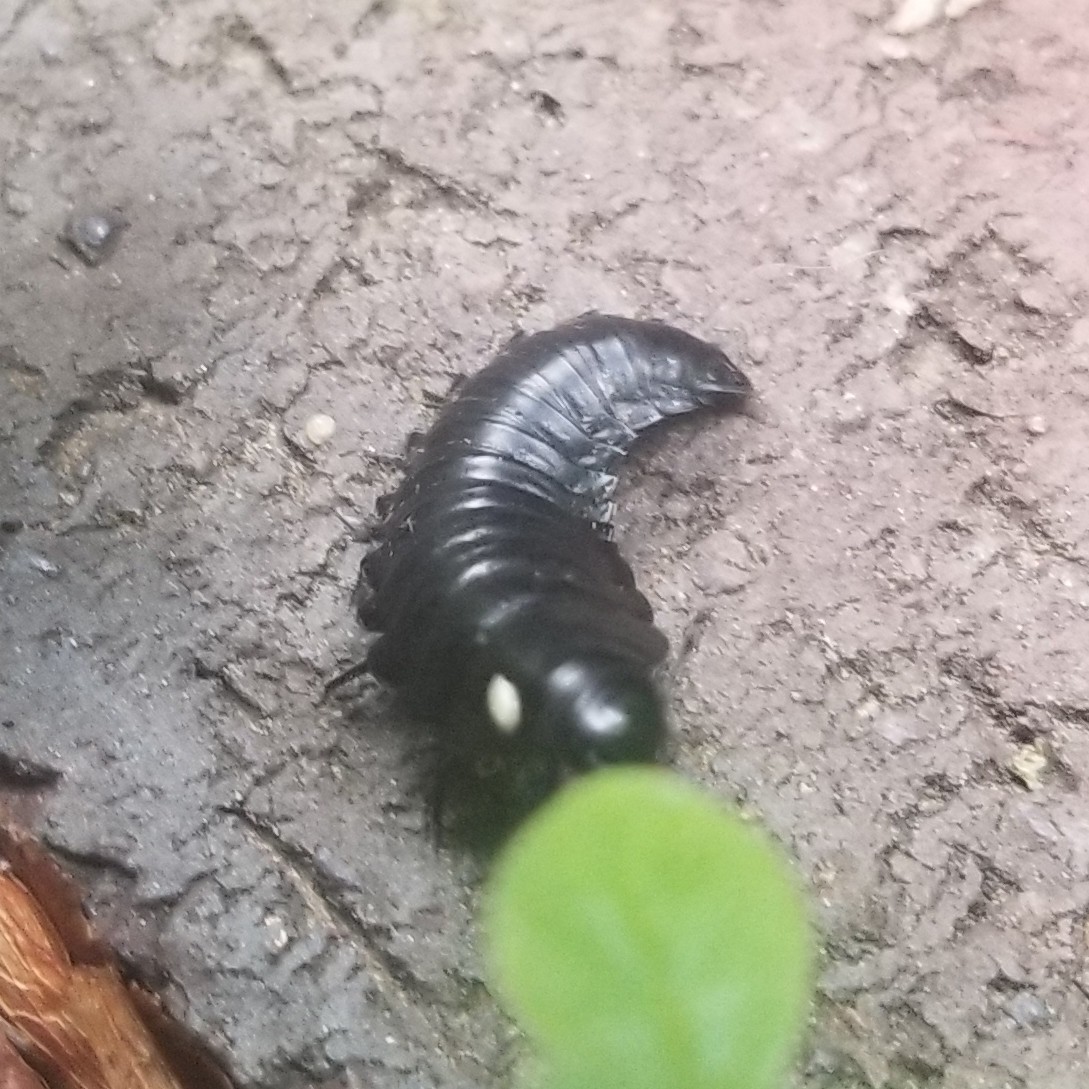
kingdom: Animalia
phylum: Arthropoda
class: Insecta
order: Coleoptera
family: Staphylinidae
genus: Necrophila
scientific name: Necrophila americana
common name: American carrion beetle
